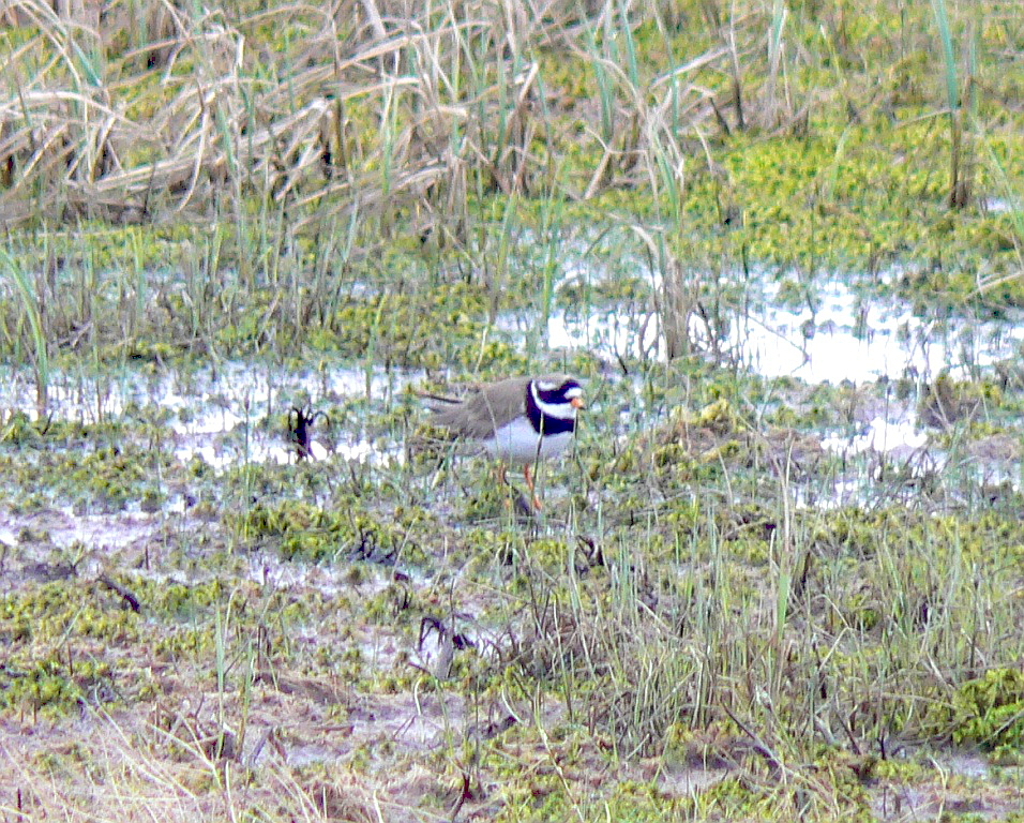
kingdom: Animalia
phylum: Chordata
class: Aves
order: Charadriiformes
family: Charadriidae
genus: Charadrius
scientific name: Charadrius hiaticula
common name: Common ringed plover
